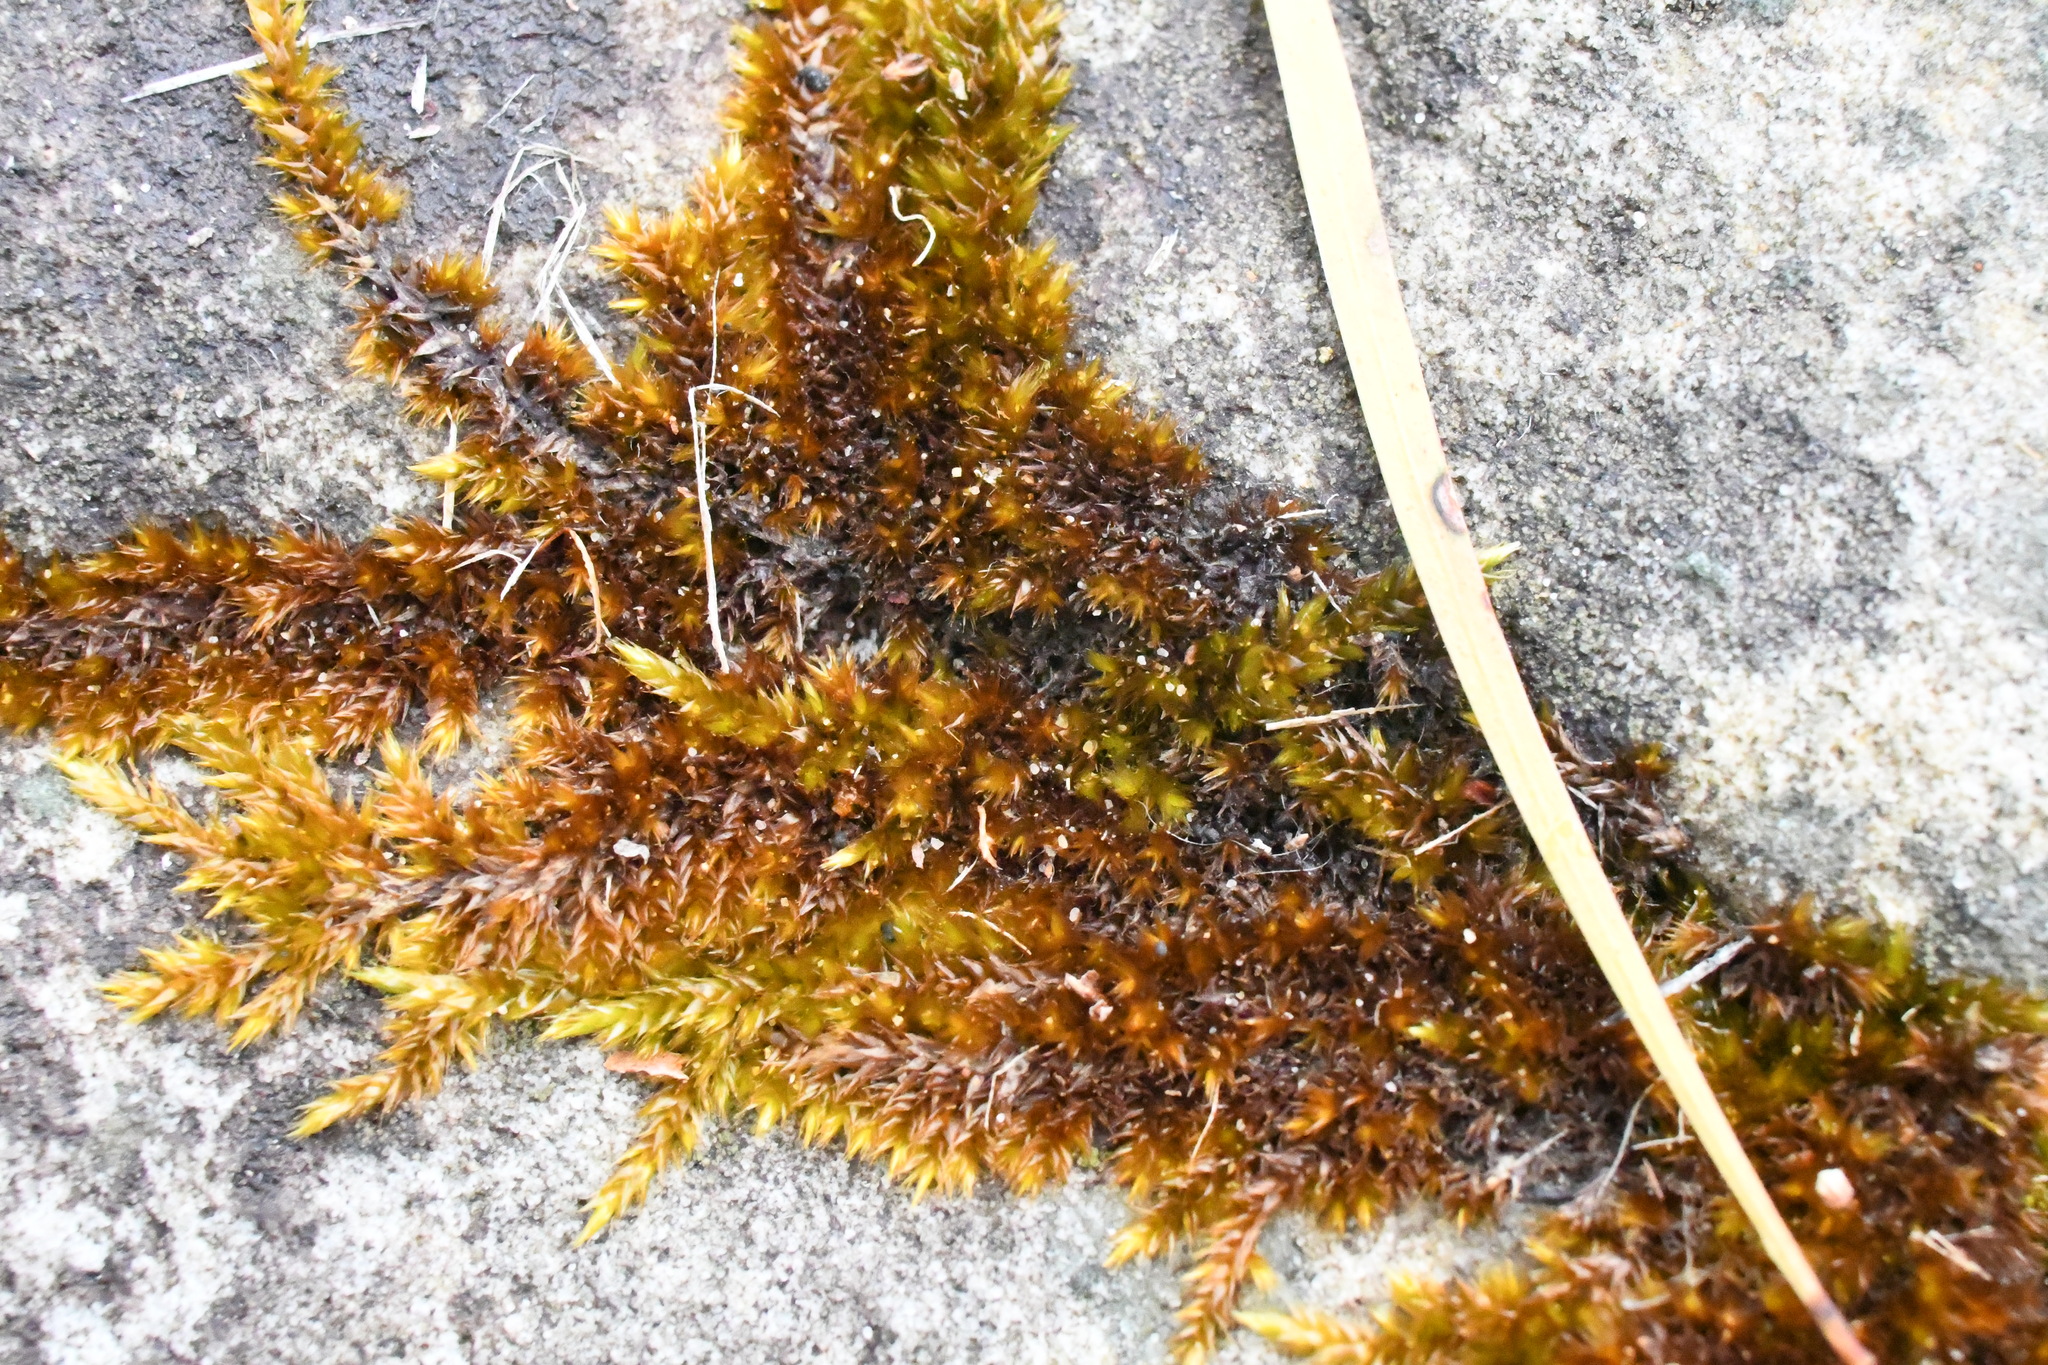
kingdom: Plantae
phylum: Bryophyta
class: Bryopsida
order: Hypnales
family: Sematophyllaceae
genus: Sematophyllum
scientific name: Sematophyllum homomallum
